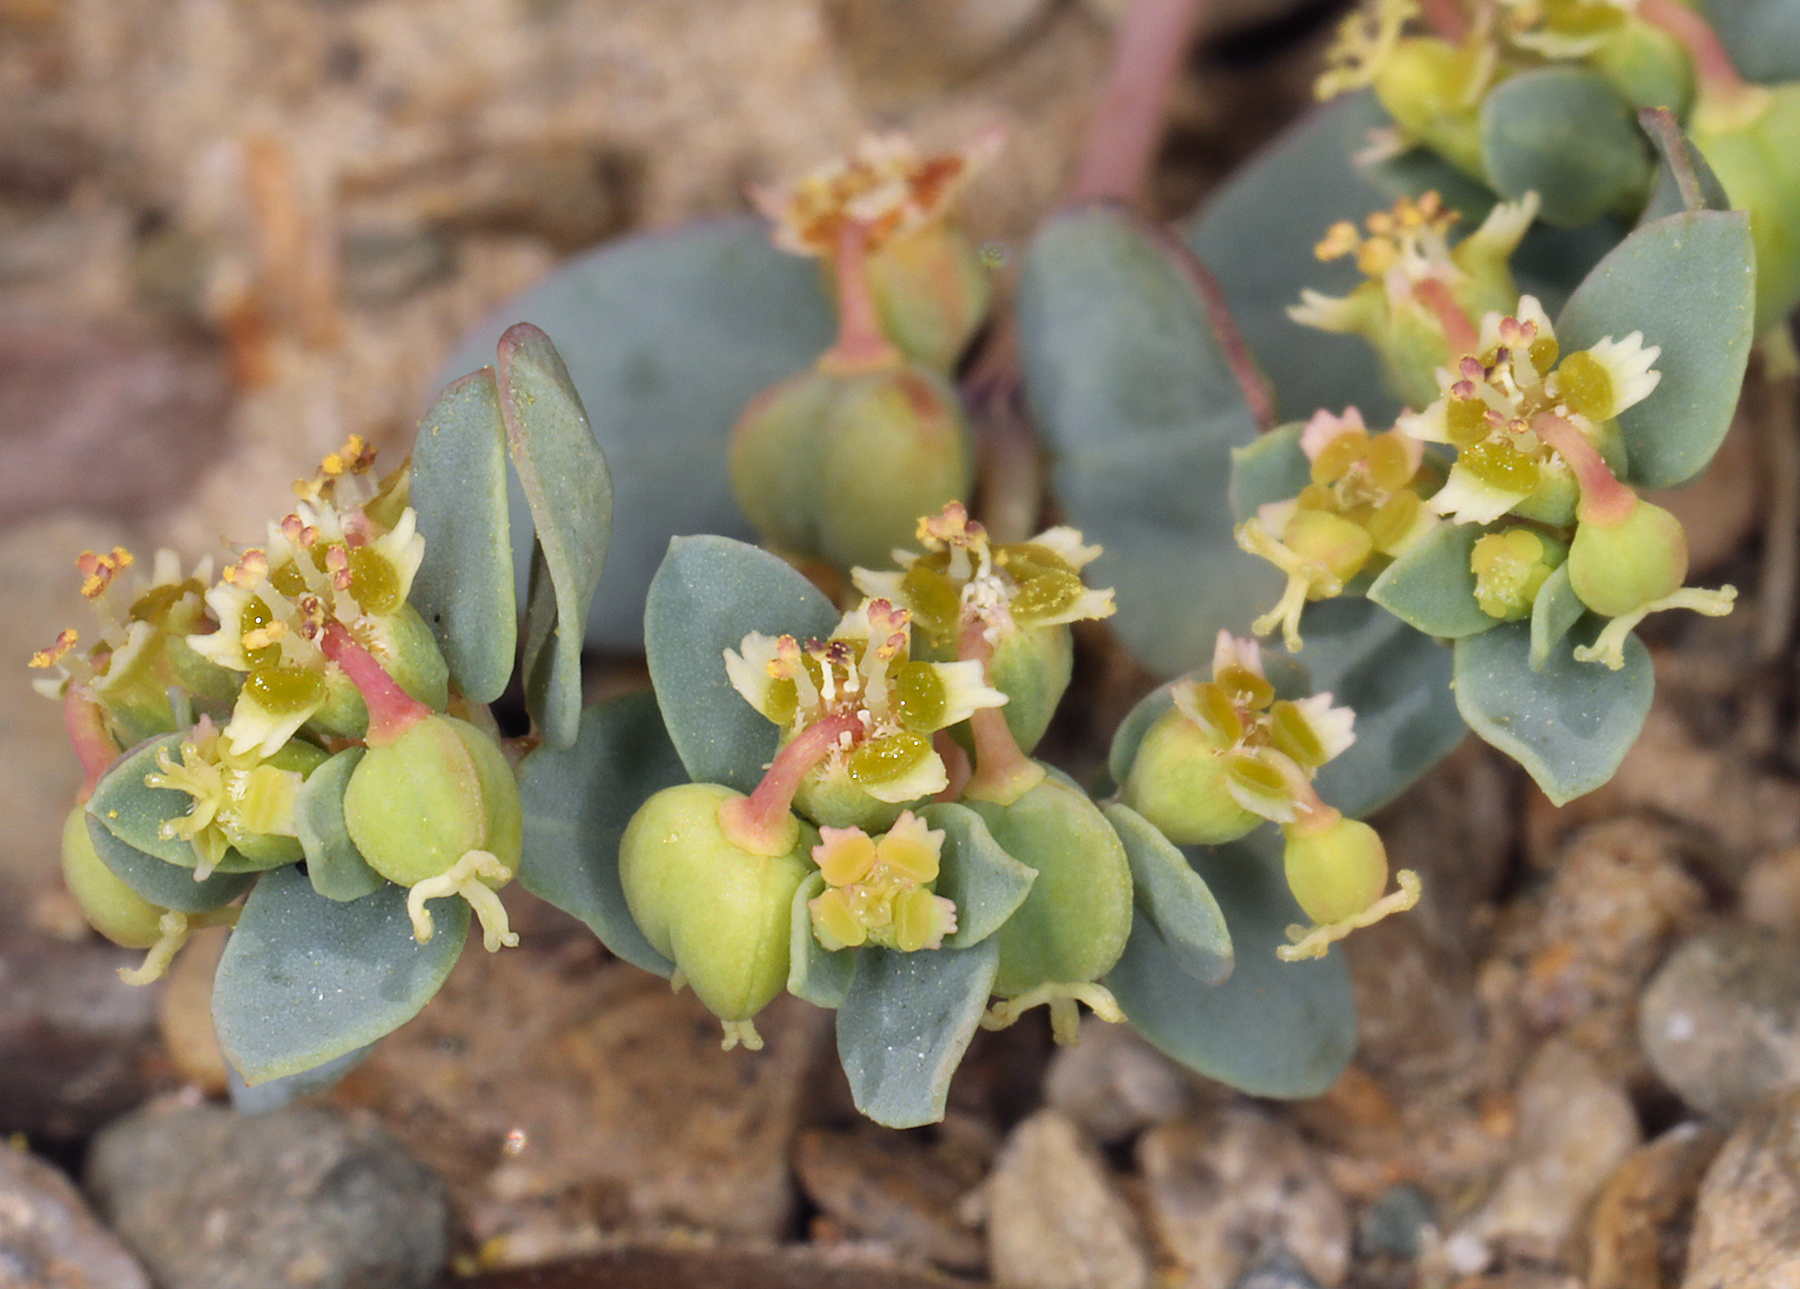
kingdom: Plantae
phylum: Tracheophyta
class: Magnoliopsida
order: Malpighiales
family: Euphorbiaceae
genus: Euphorbia
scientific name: Euphorbia fendleri
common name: Fendler's euphorbia
